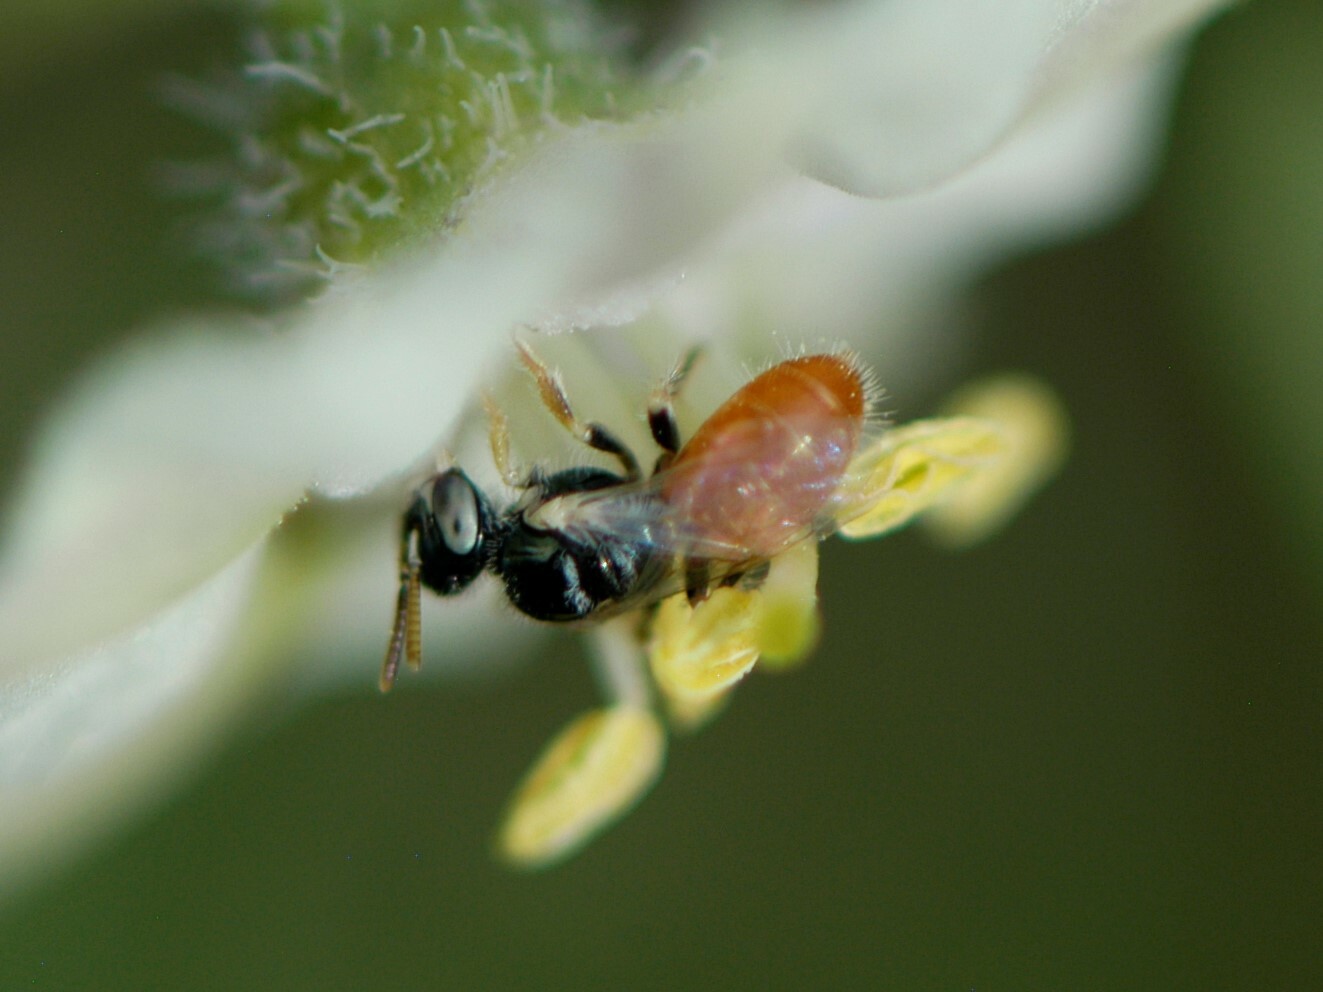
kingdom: Animalia
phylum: Arthropoda
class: Insecta
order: Hymenoptera
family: Andrenidae
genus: Perdita
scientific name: Perdita chamaesarachae
